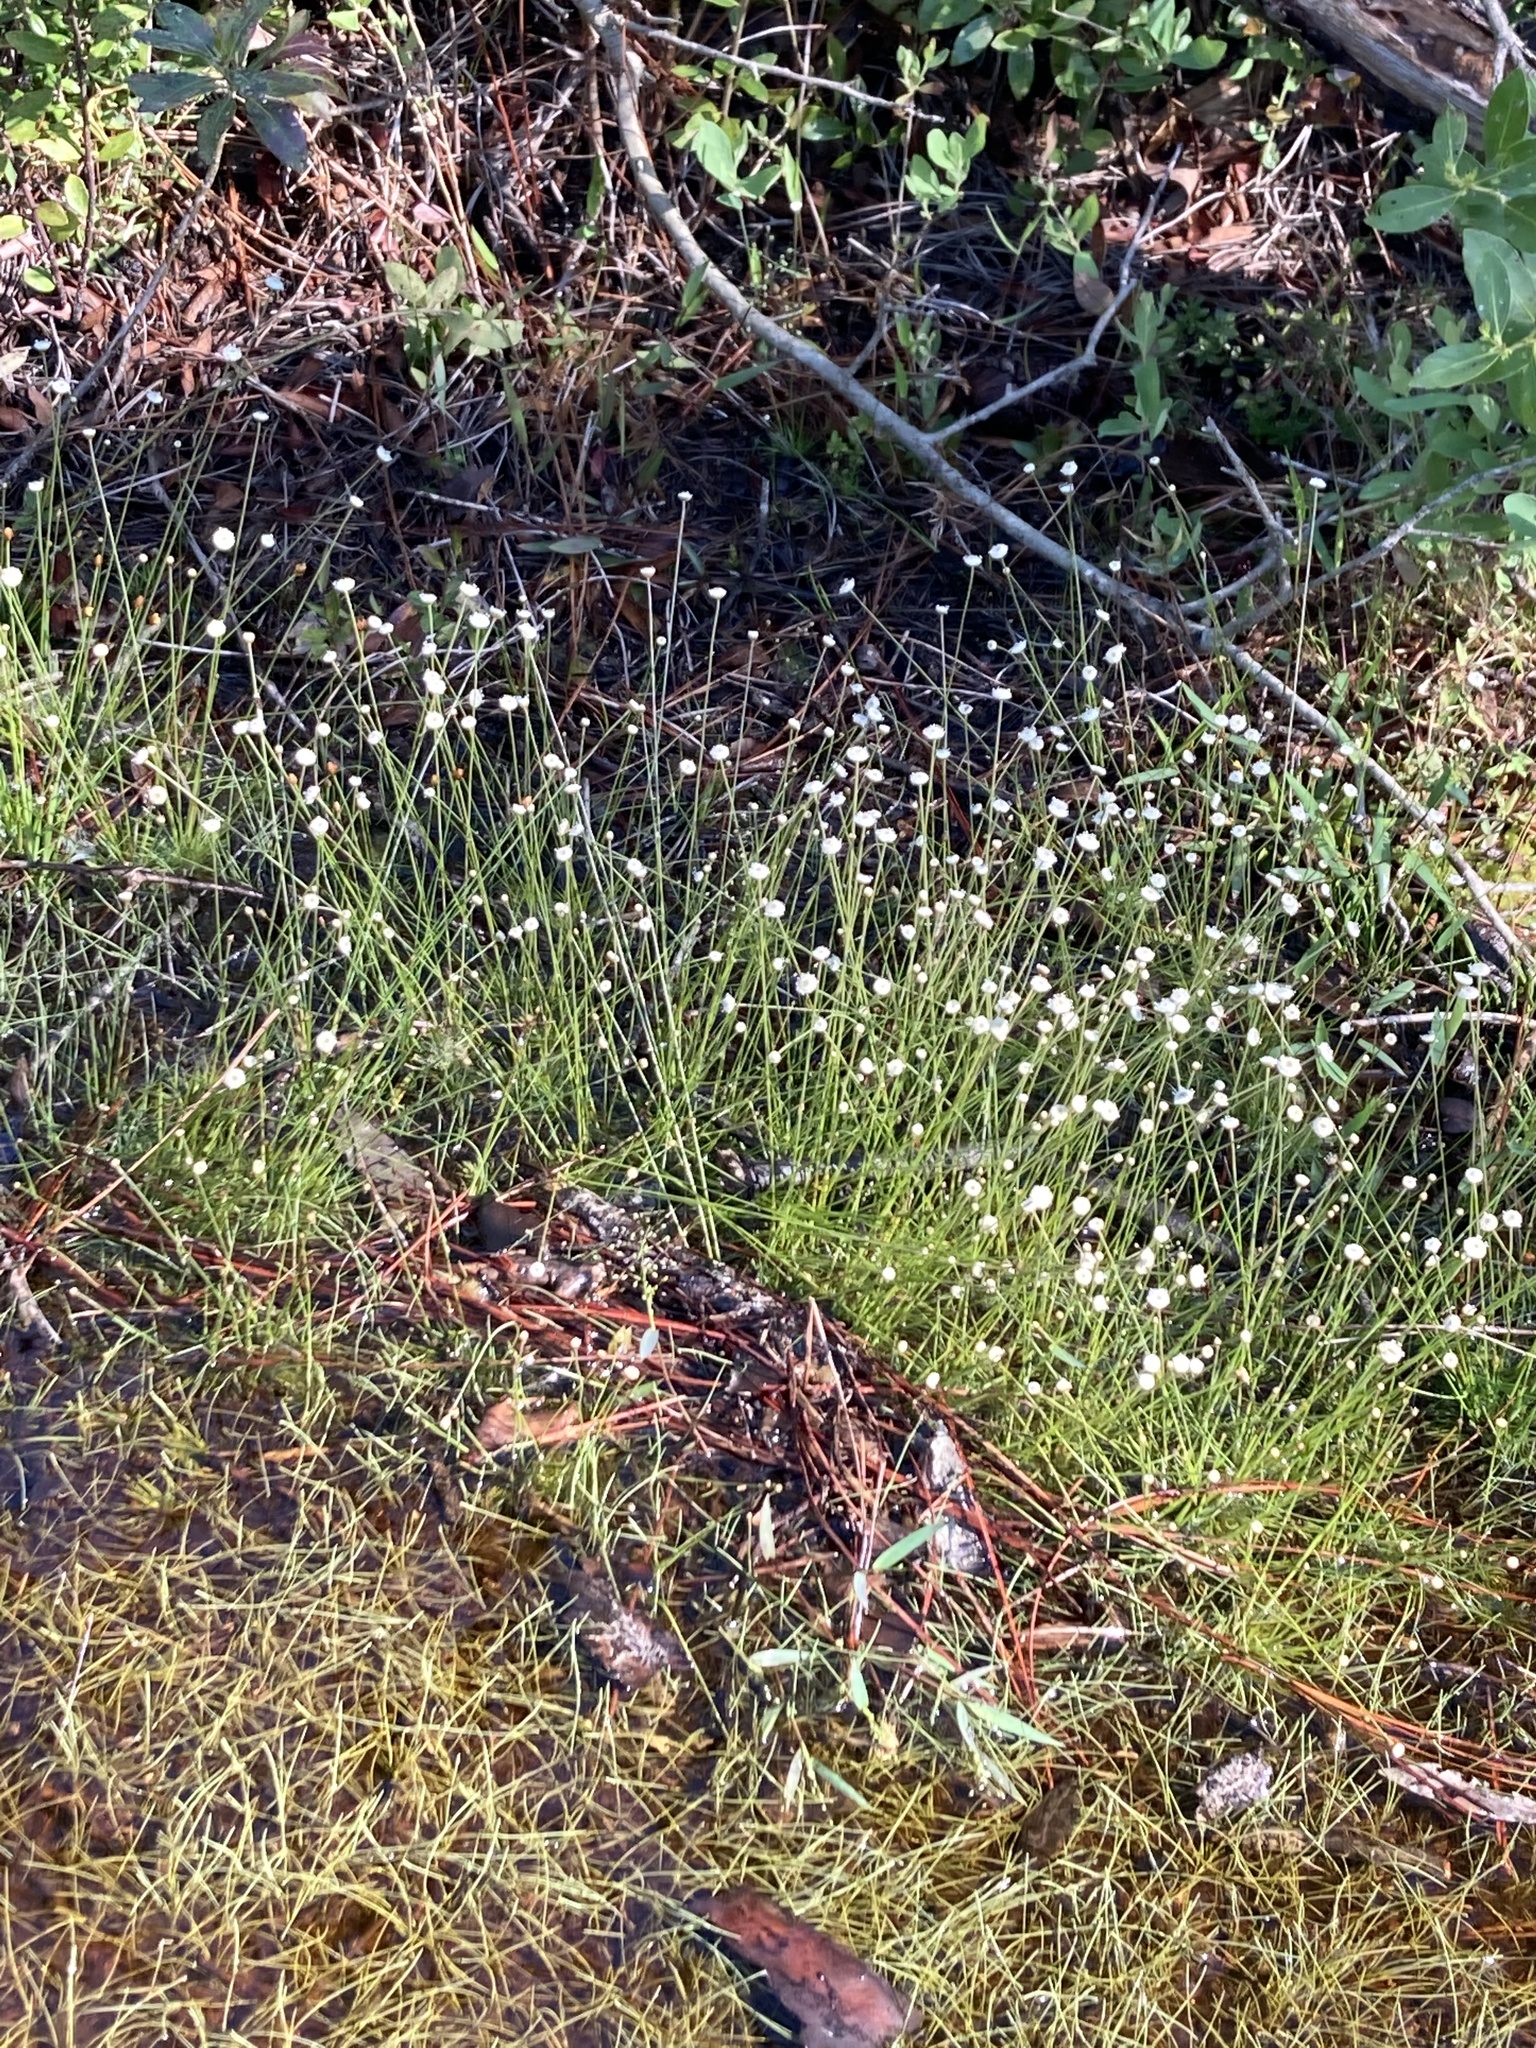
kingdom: Plantae
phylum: Tracheophyta
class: Liliopsida
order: Poales
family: Eriocaulaceae
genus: Syngonanthus
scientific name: Syngonanthus flavidulus
